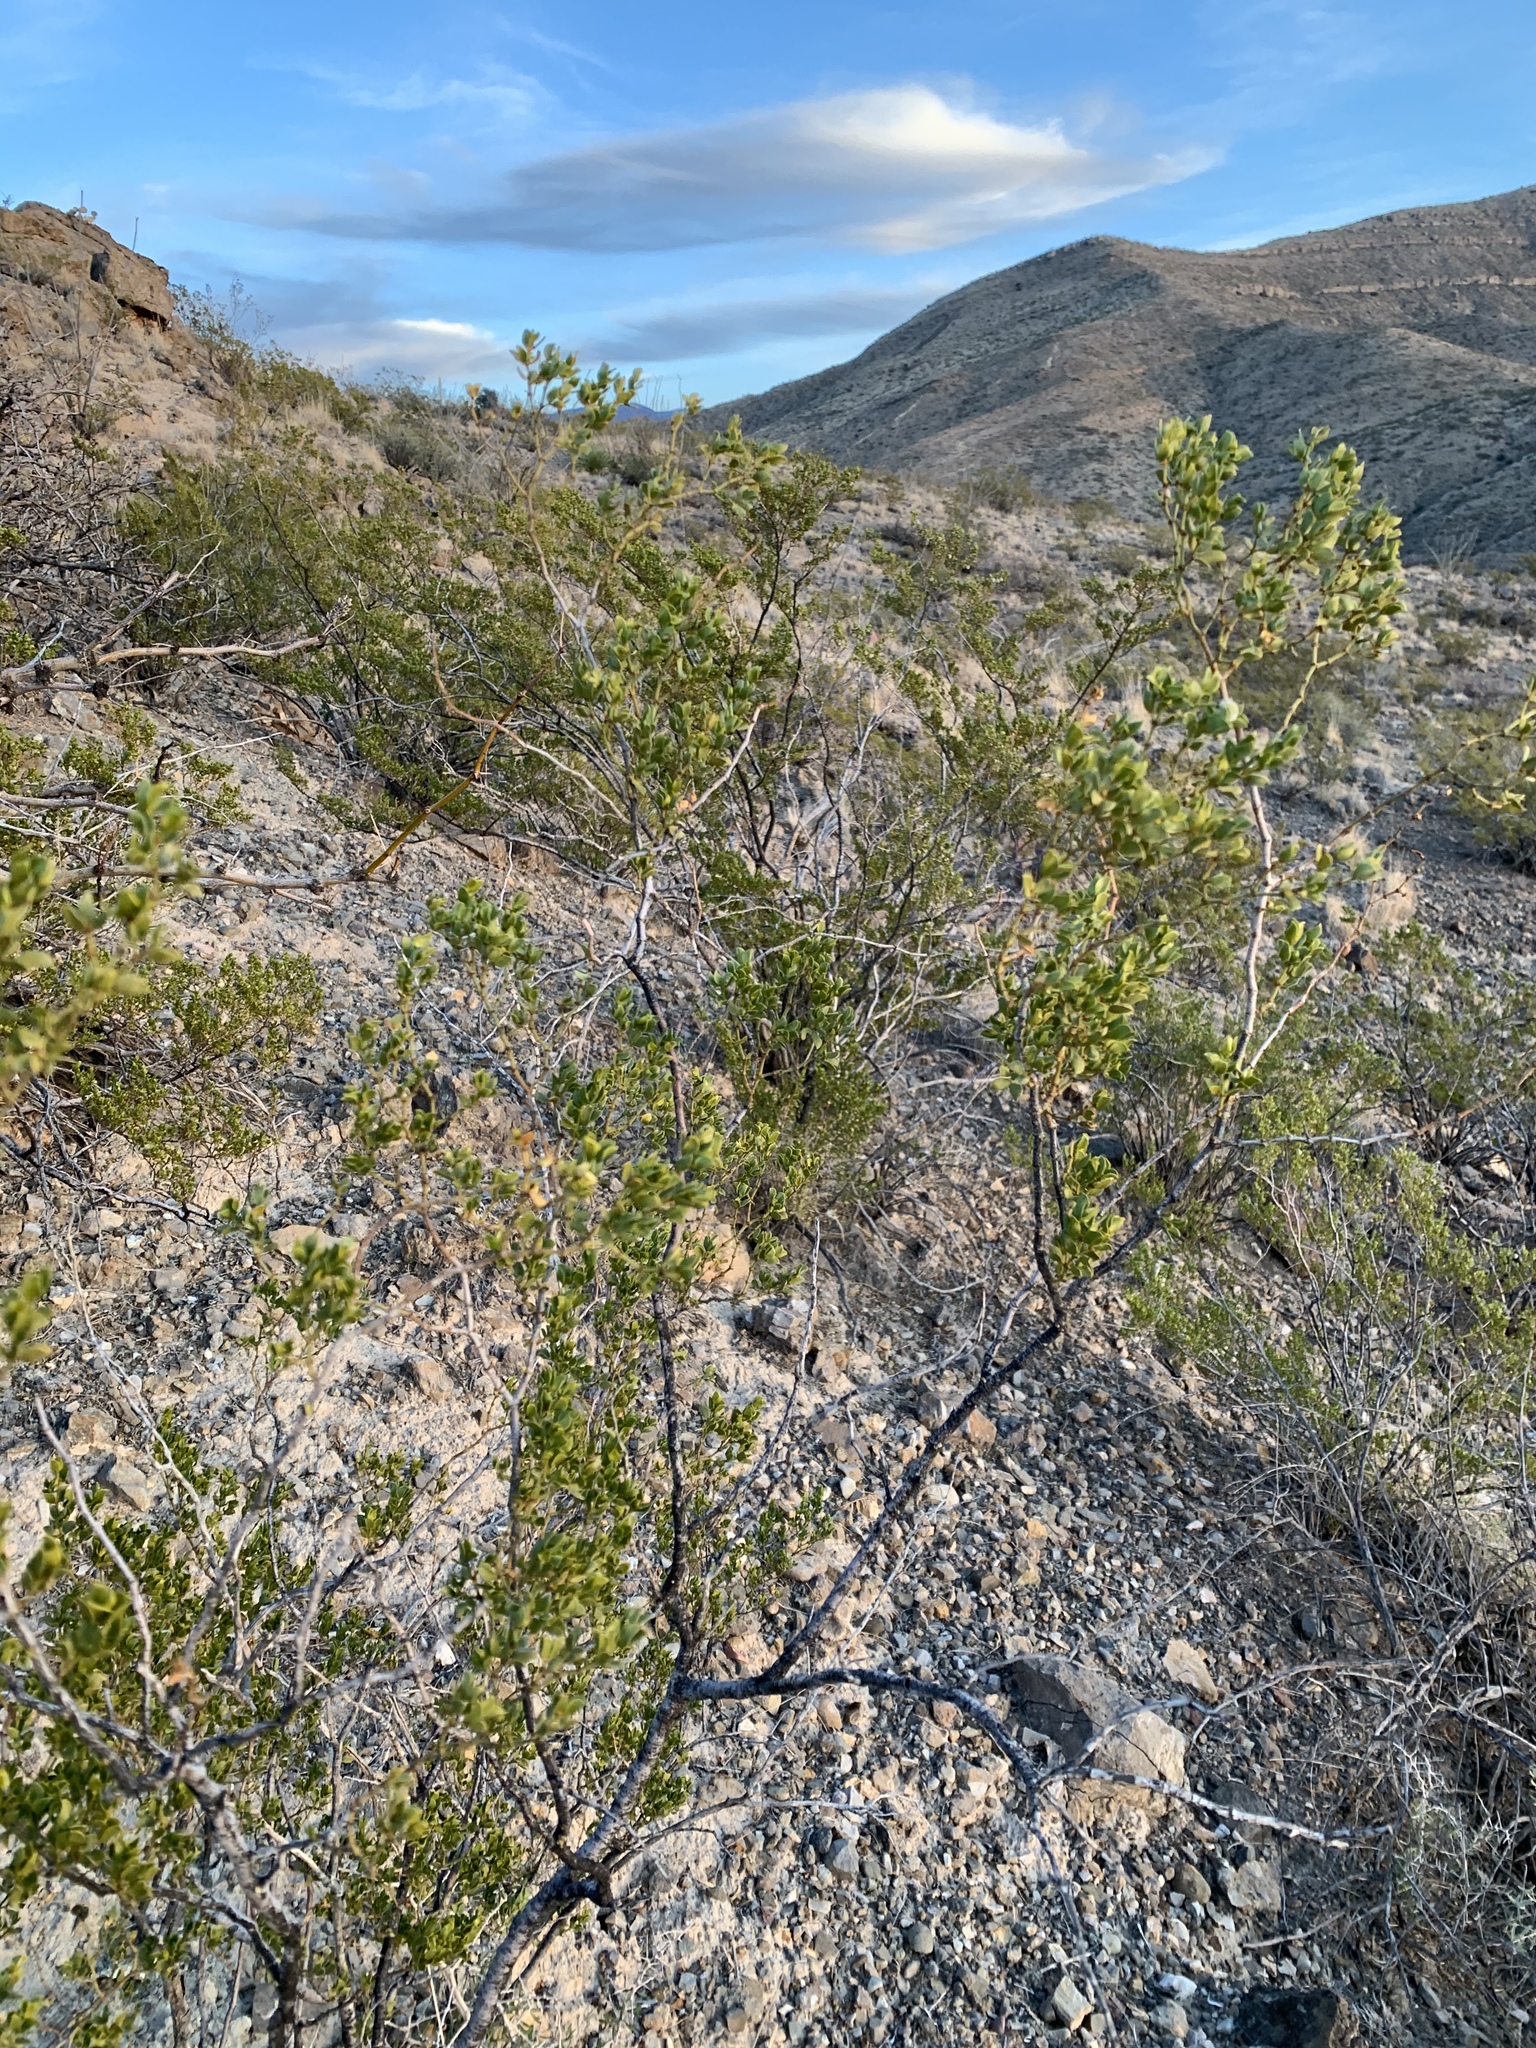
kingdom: Plantae
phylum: Tracheophyta
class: Magnoliopsida
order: Zygophyllales
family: Zygophyllaceae
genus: Larrea
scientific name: Larrea tridentata
